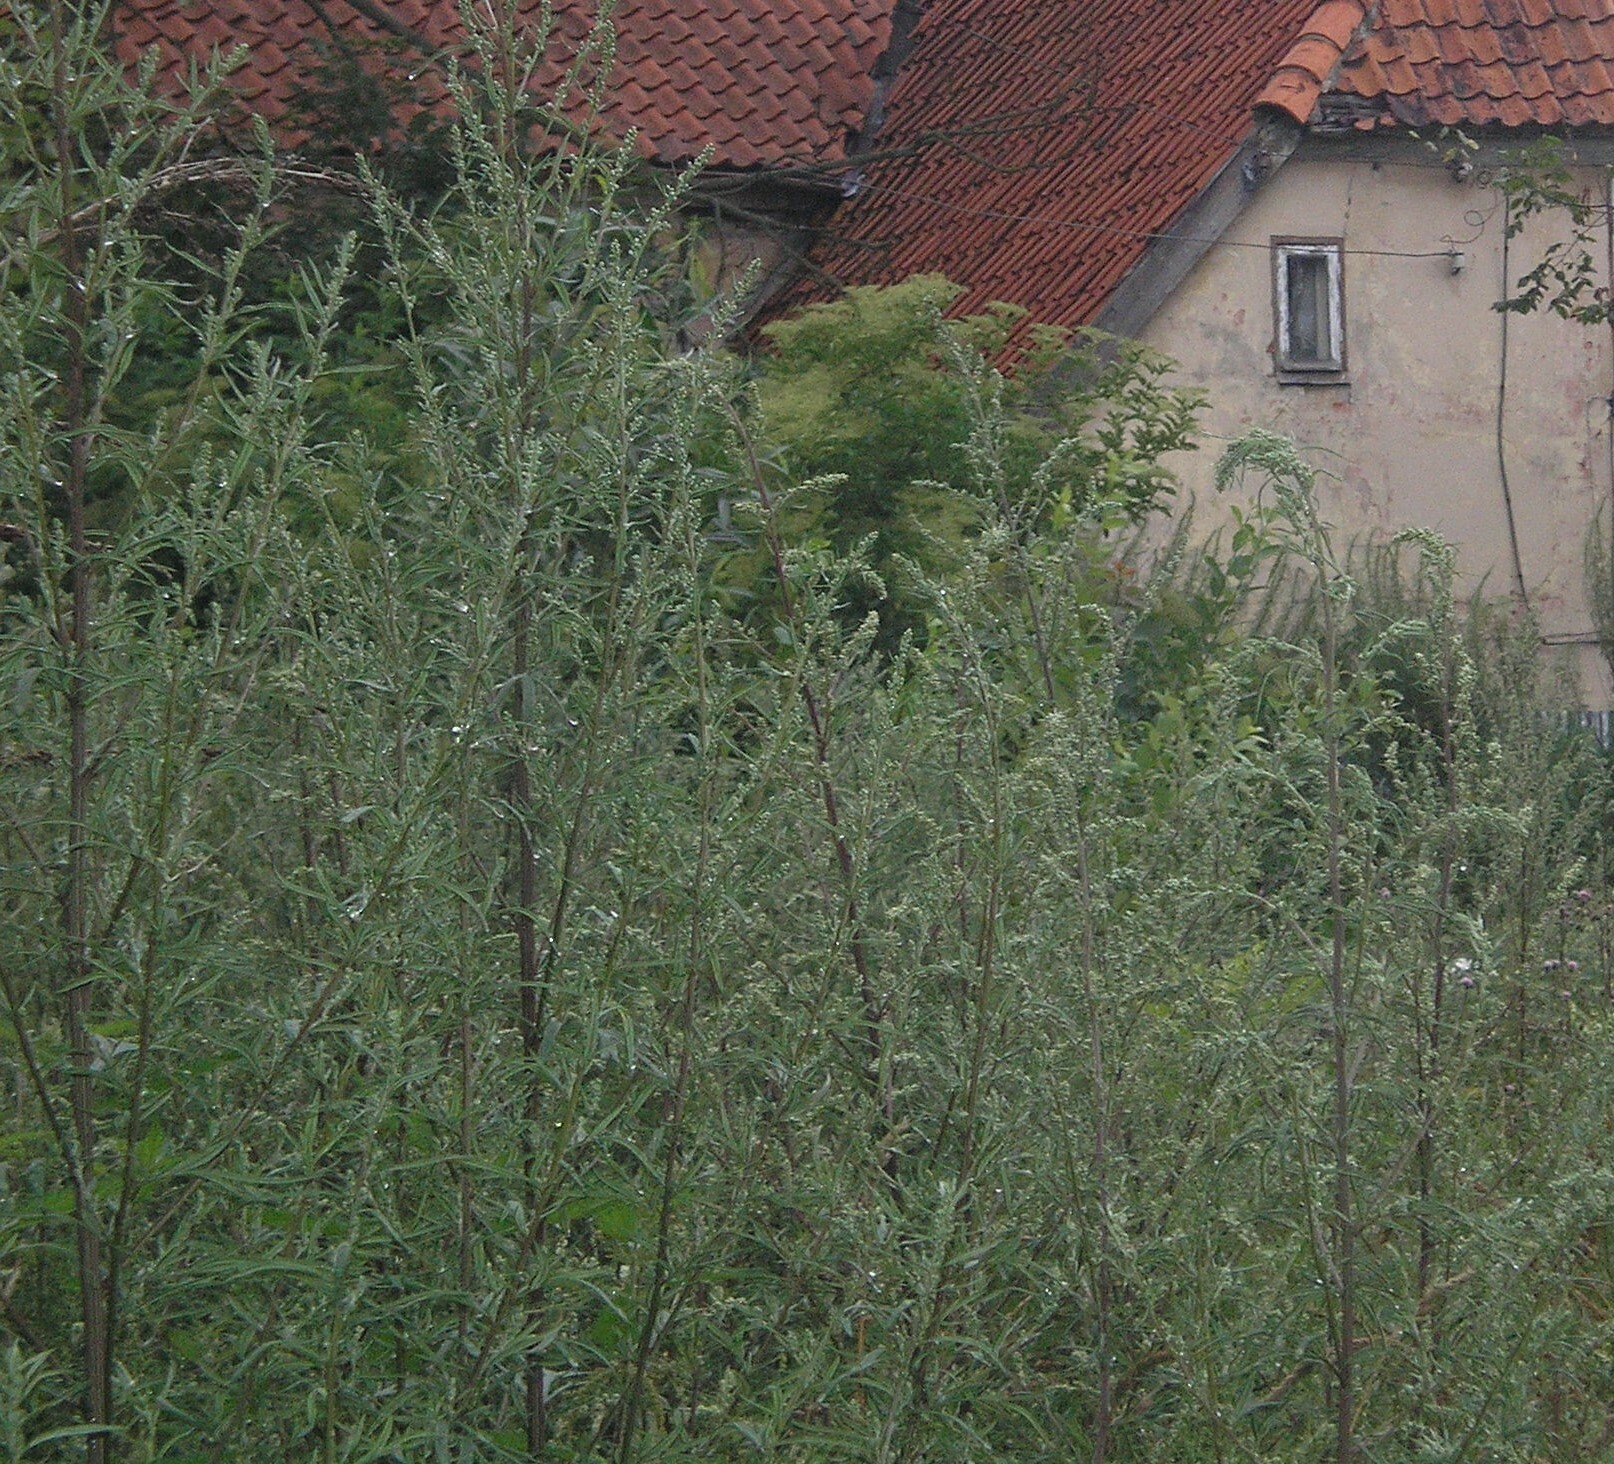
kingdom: Plantae
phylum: Tracheophyta
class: Magnoliopsida
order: Asterales
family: Asteraceae
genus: Artemisia
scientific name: Artemisia vulgaris
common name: Mugwort
